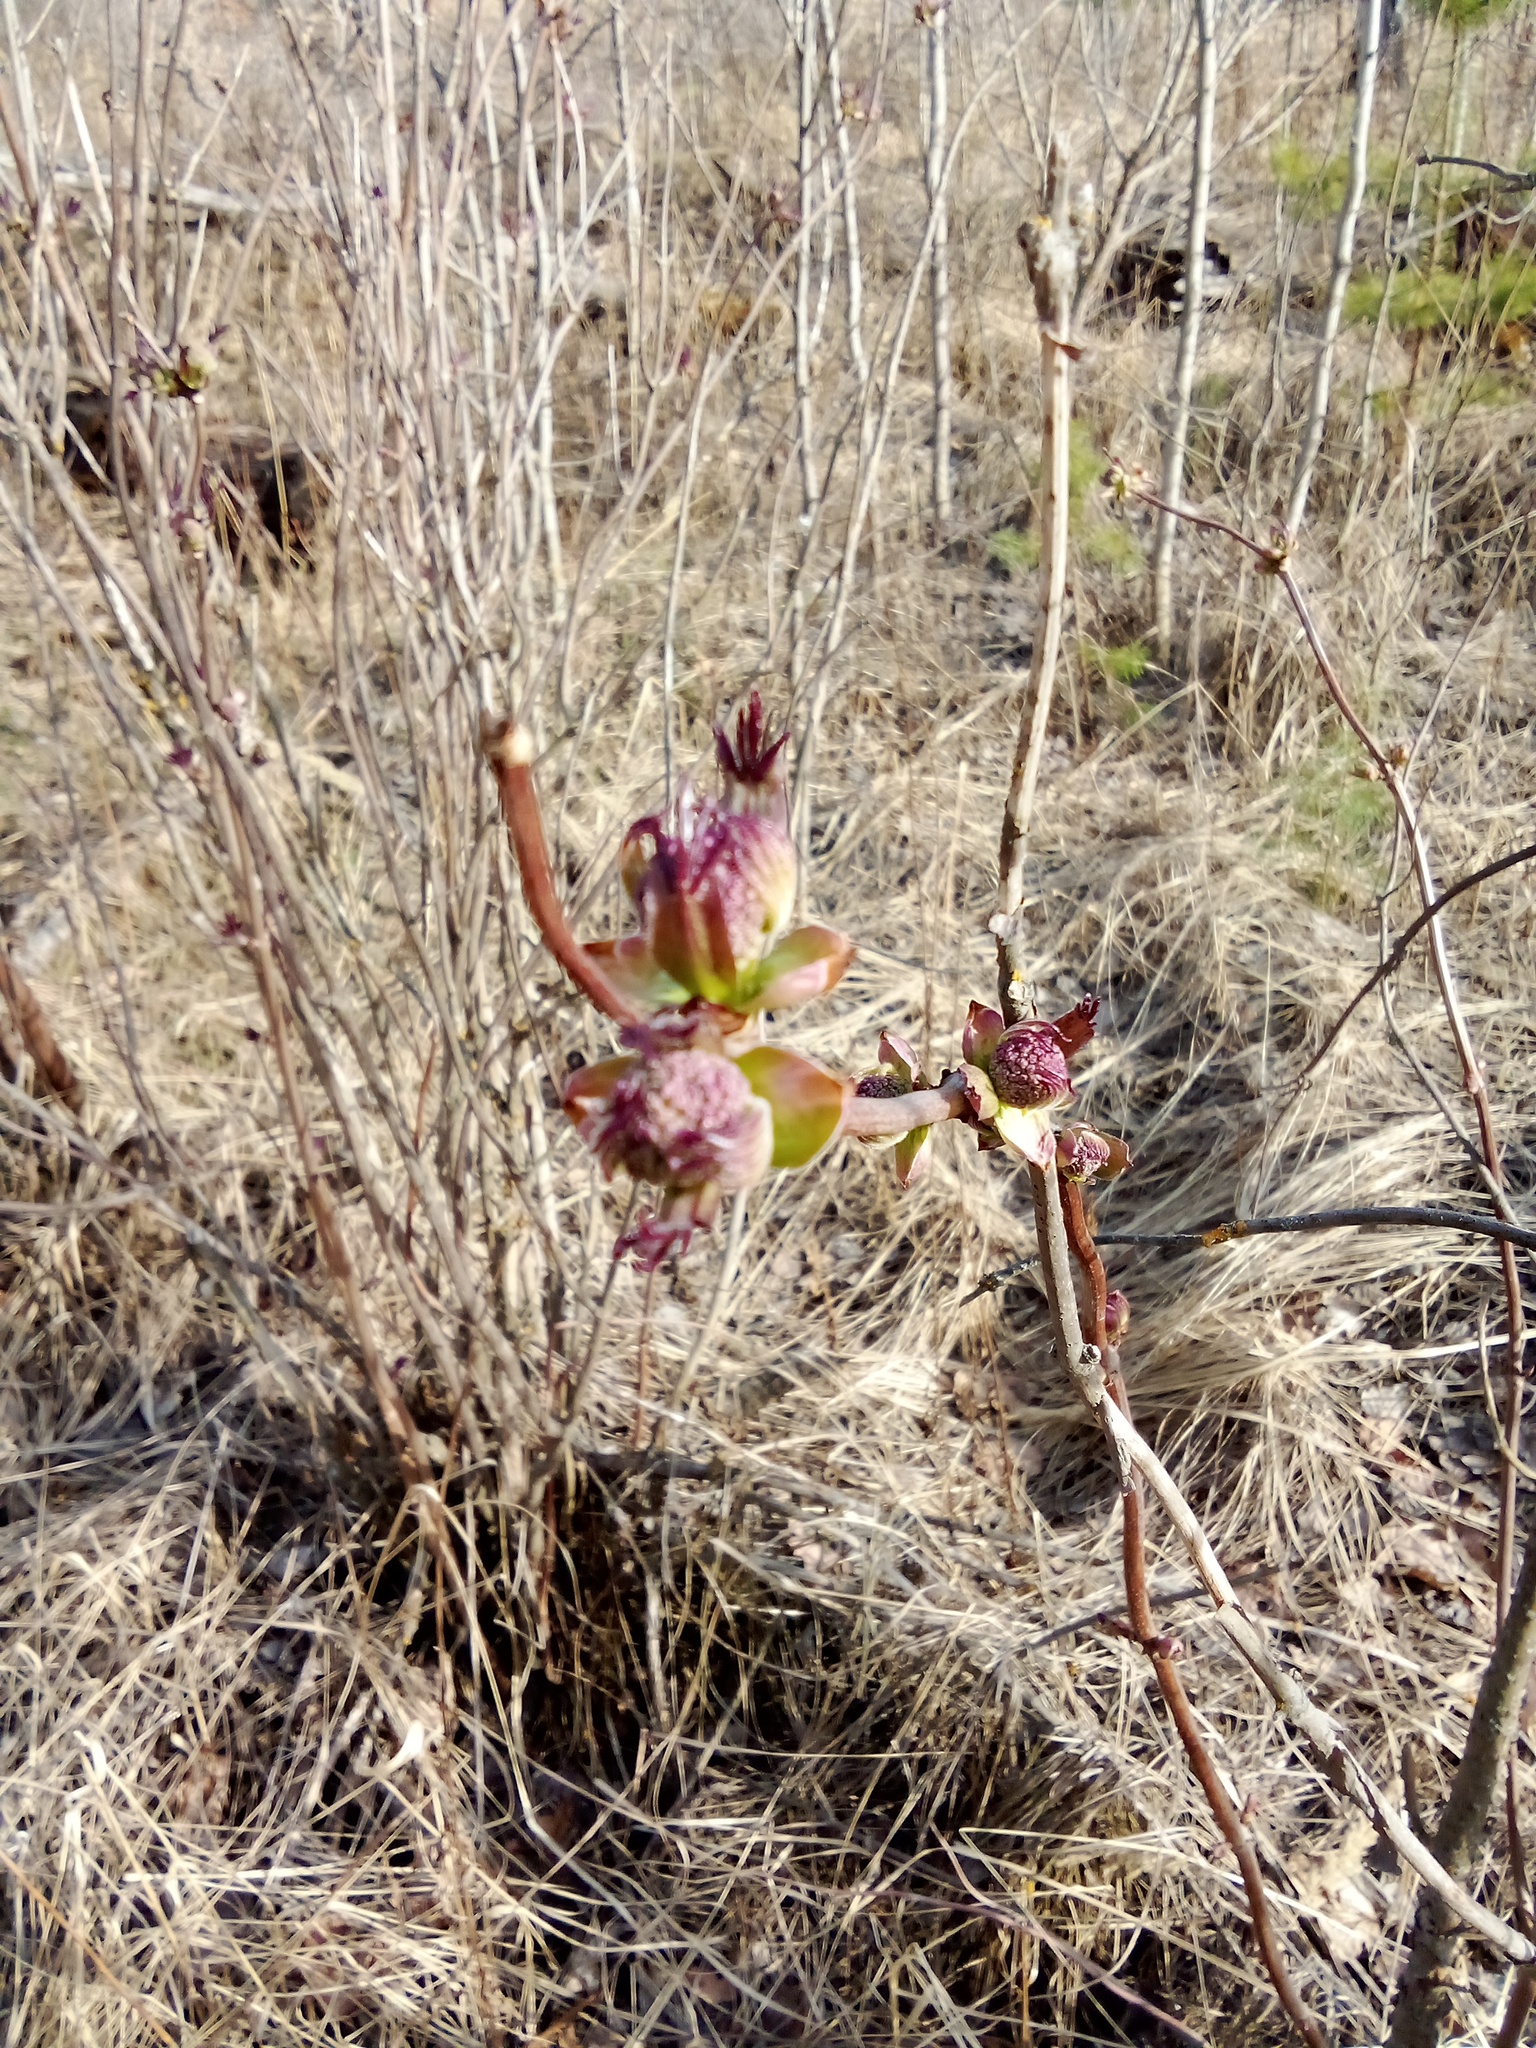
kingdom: Plantae
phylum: Tracheophyta
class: Magnoliopsida
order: Dipsacales
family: Viburnaceae
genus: Sambucus
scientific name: Sambucus racemosa
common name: Red-berried elder
